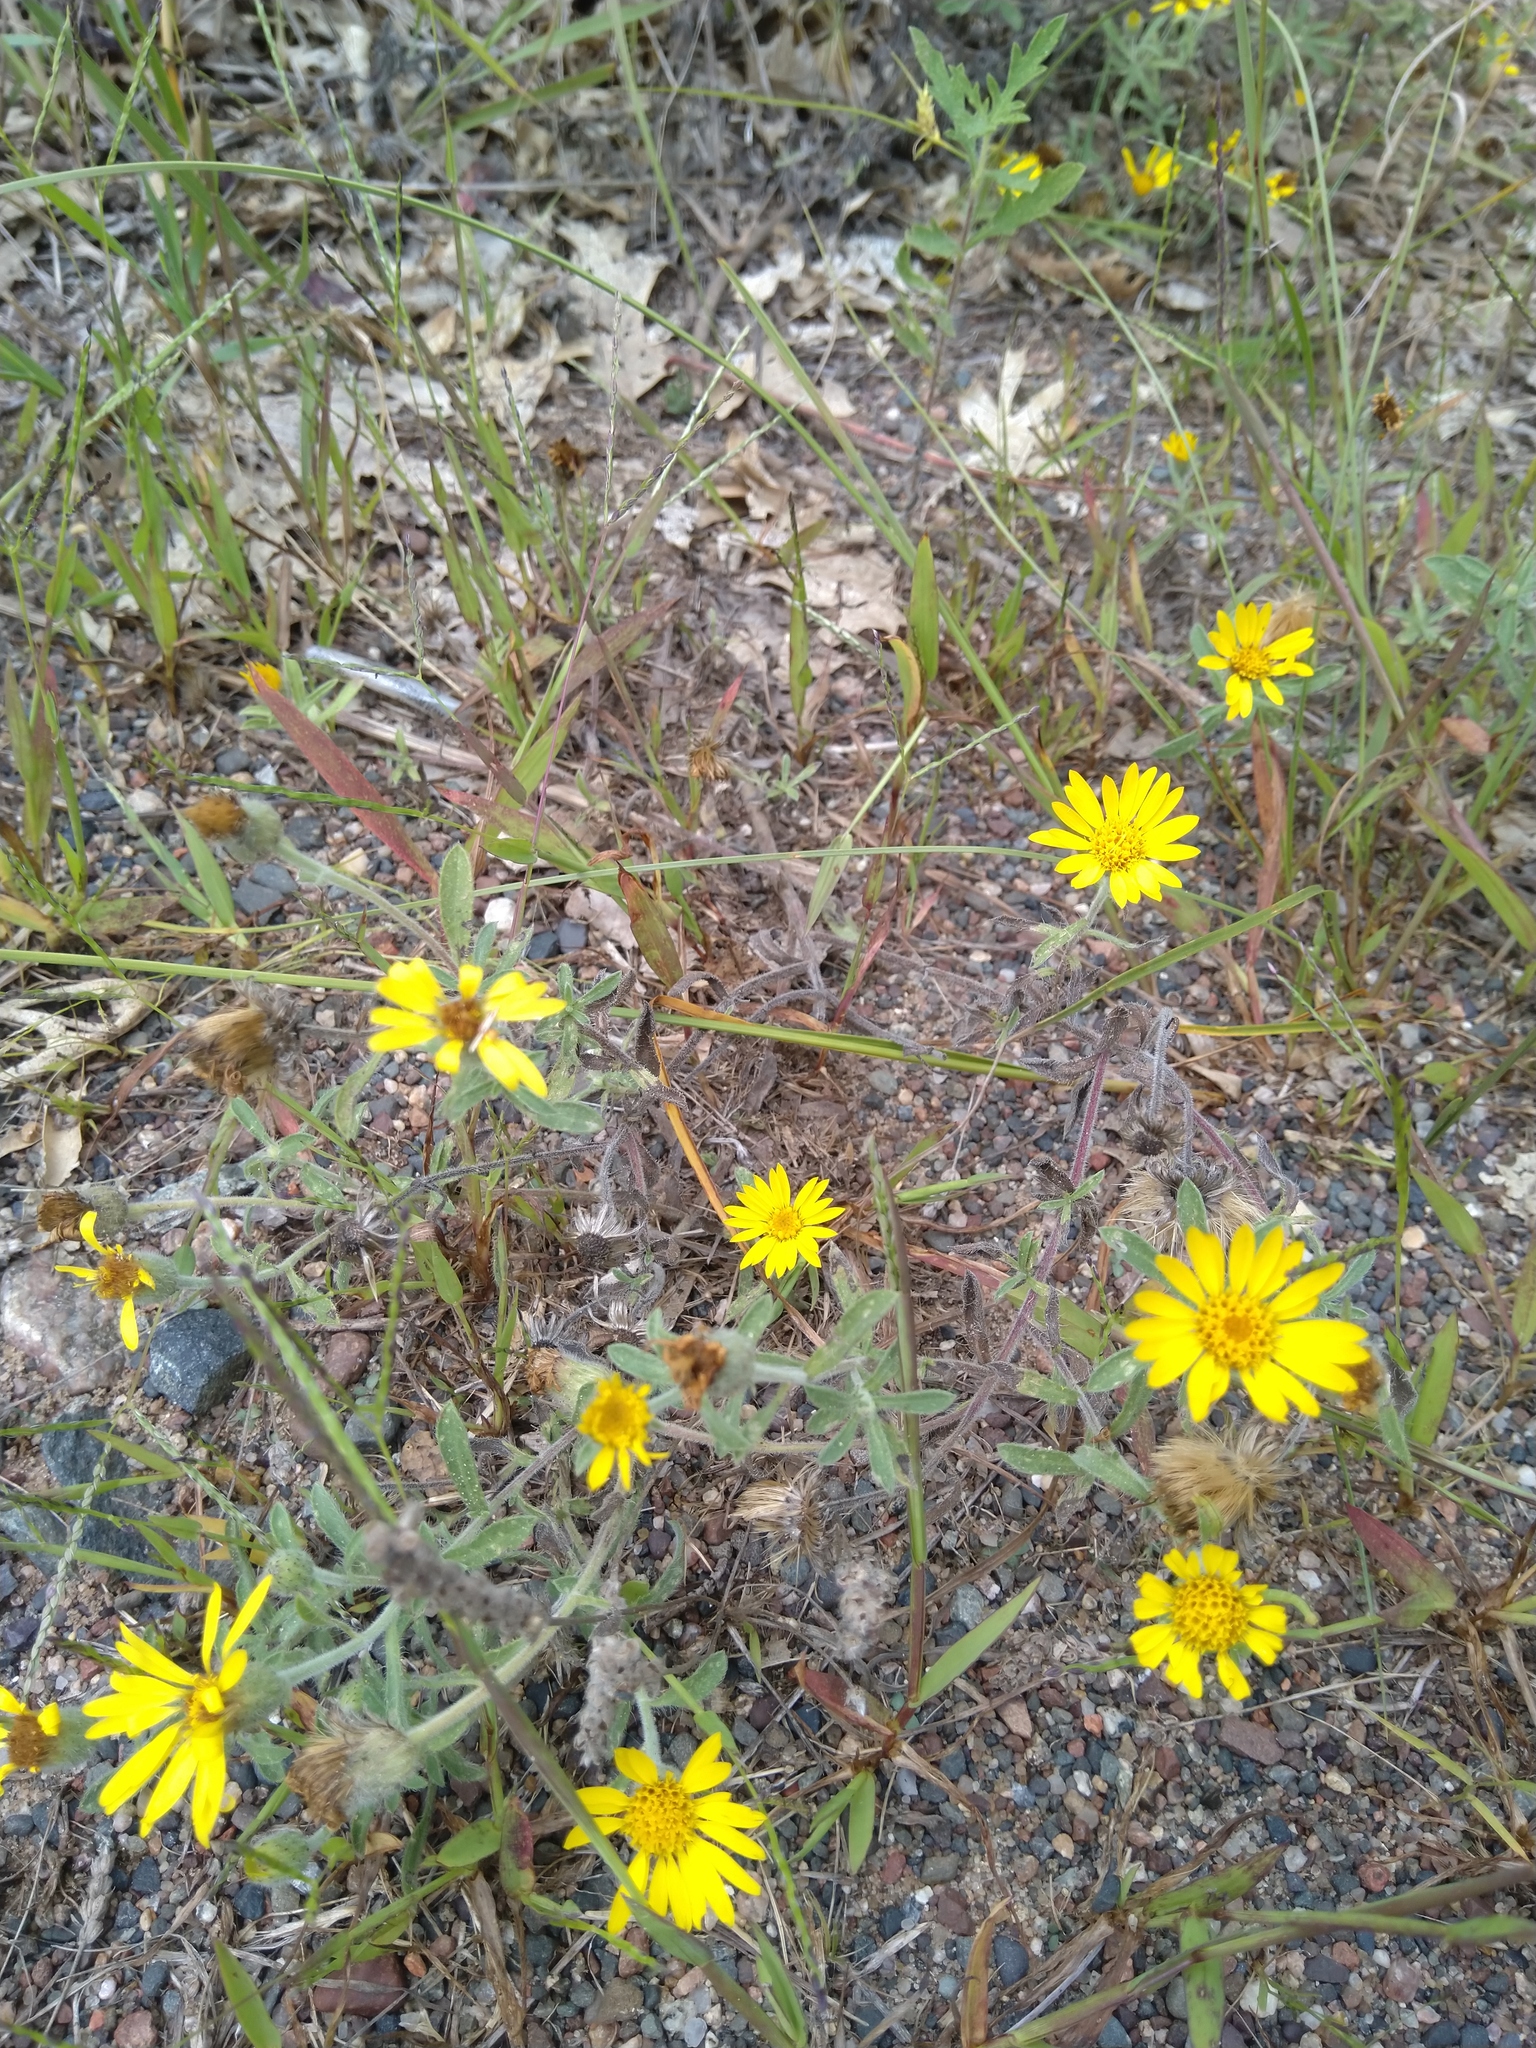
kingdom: Plantae
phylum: Tracheophyta
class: Magnoliopsida
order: Asterales
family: Asteraceae
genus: Heterotheca
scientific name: Heterotheca villosa
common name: Hairy false goldenaster
